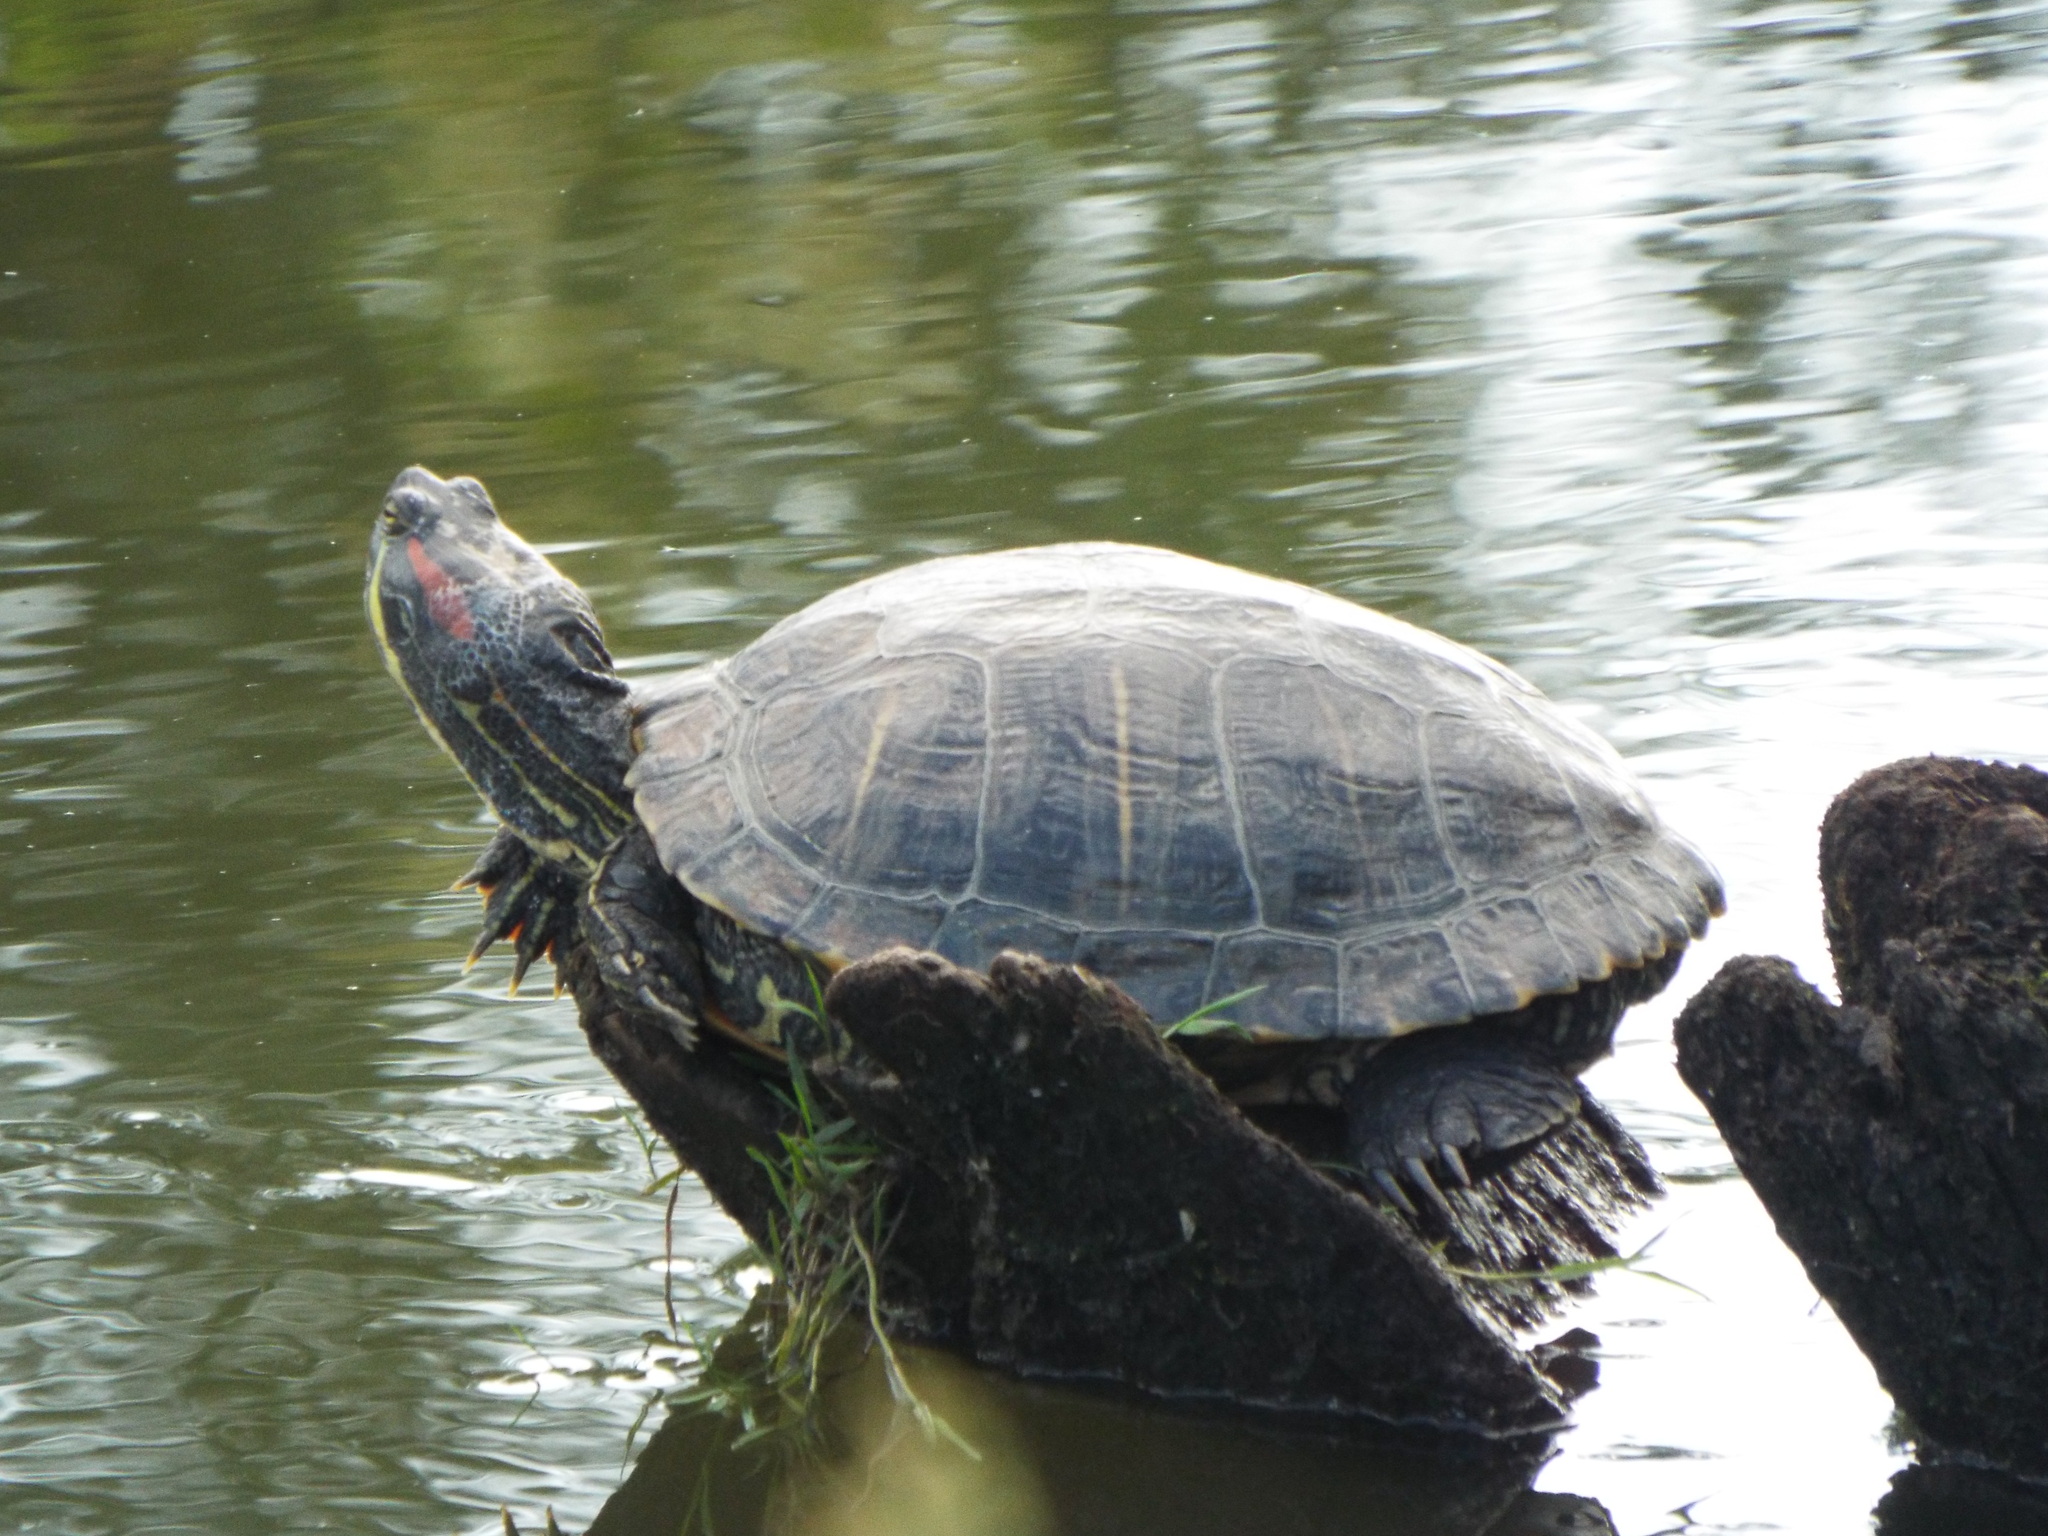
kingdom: Animalia
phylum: Chordata
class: Testudines
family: Emydidae
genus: Trachemys
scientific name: Trachemys scripta
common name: Slider
